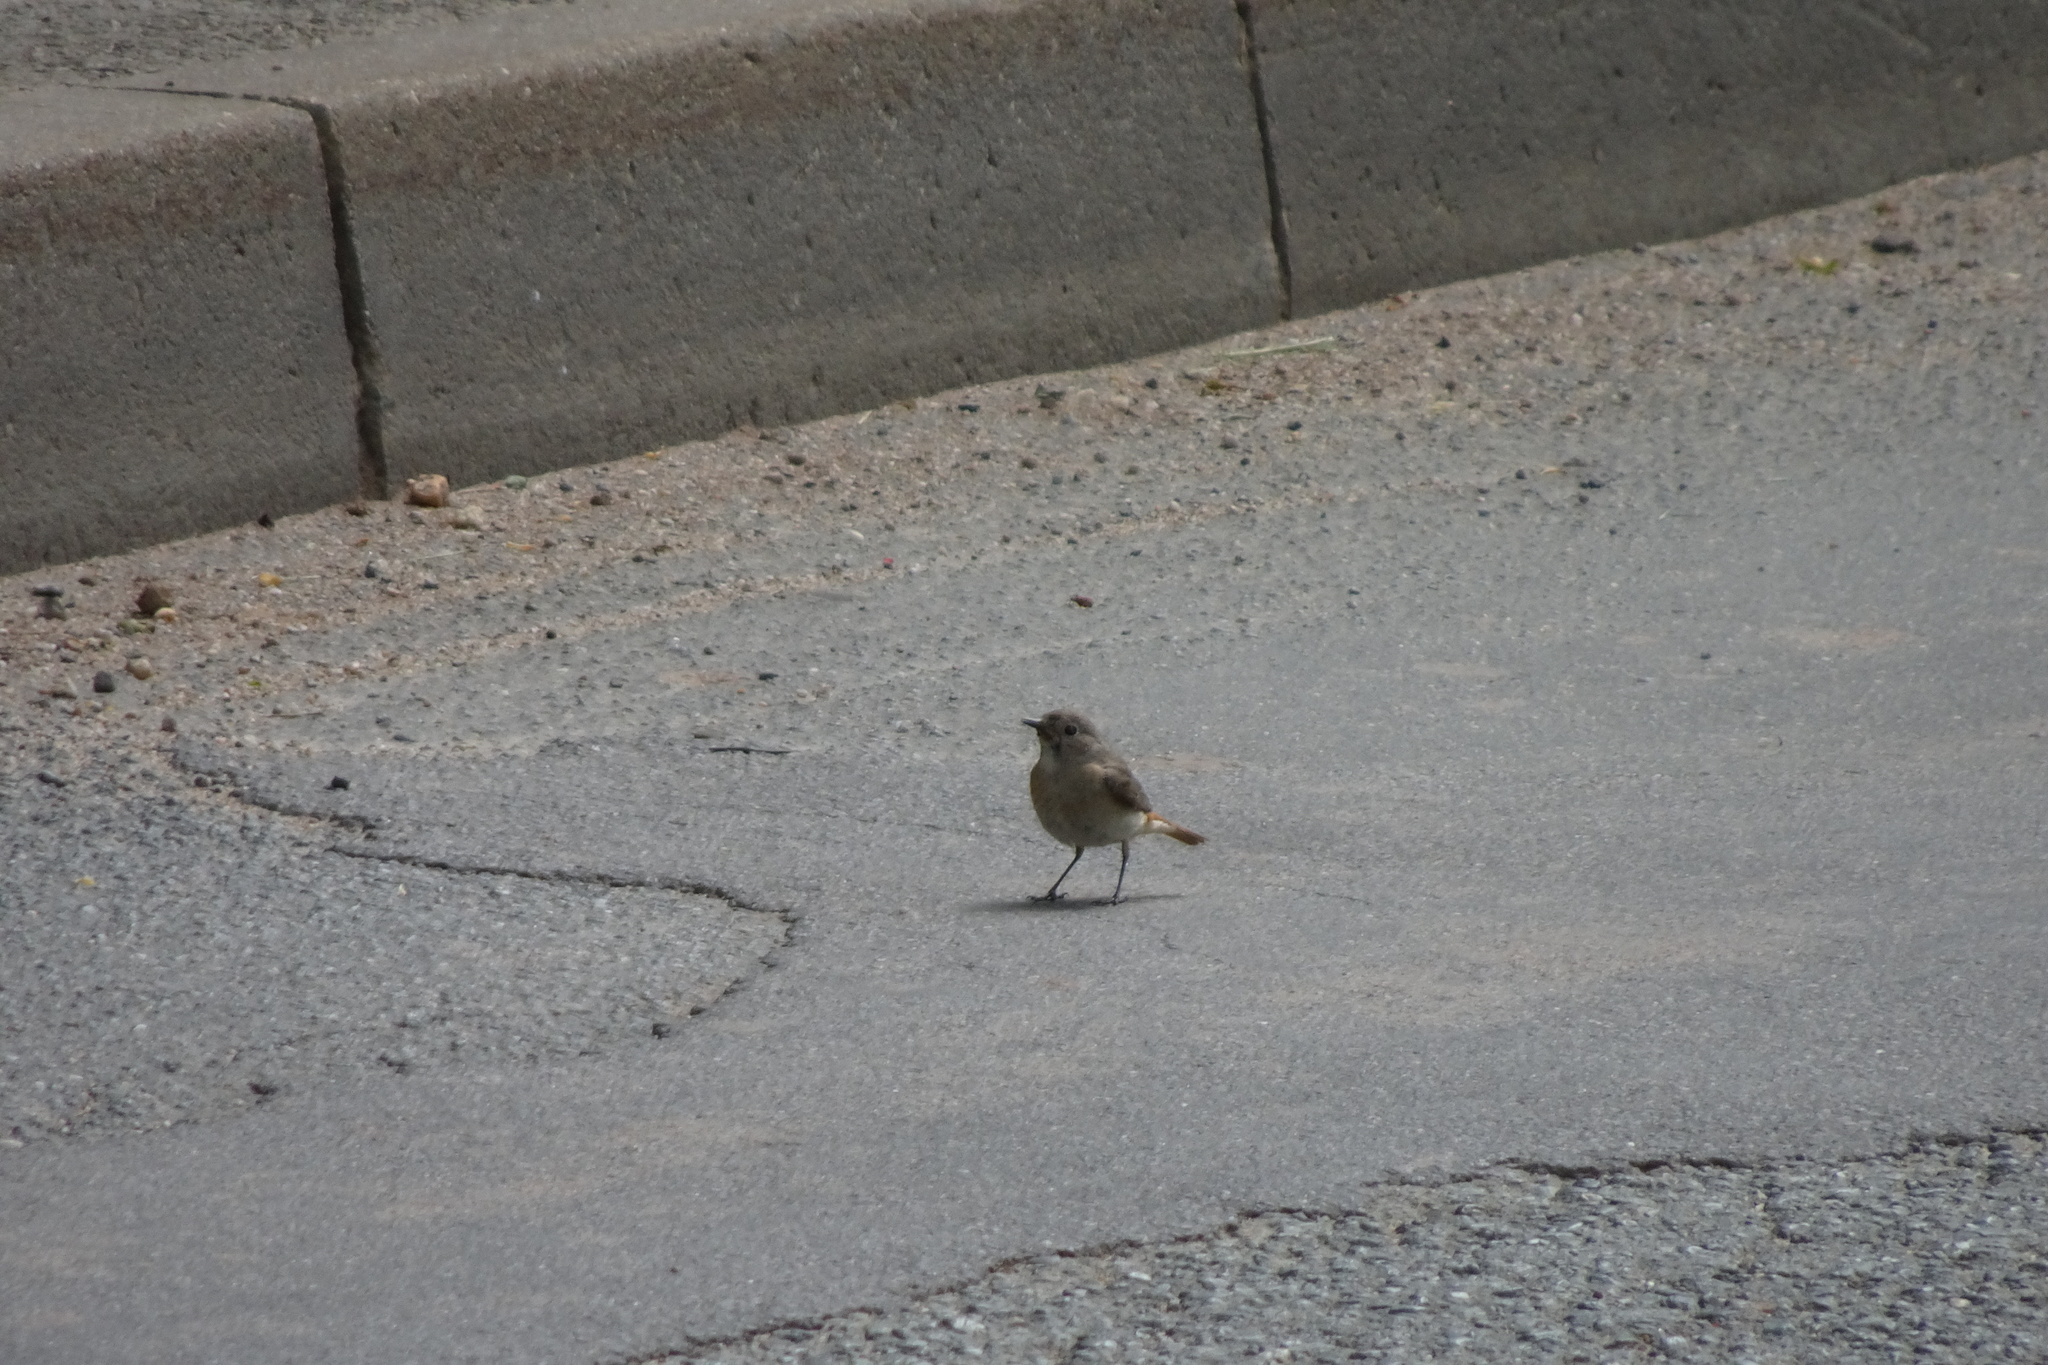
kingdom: Animalia
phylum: Chordata
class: Aves
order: Passeriformes
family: Muscicapidae
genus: Phoenicurus
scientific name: Phoenicurus phoenicurus
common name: Common redstart
